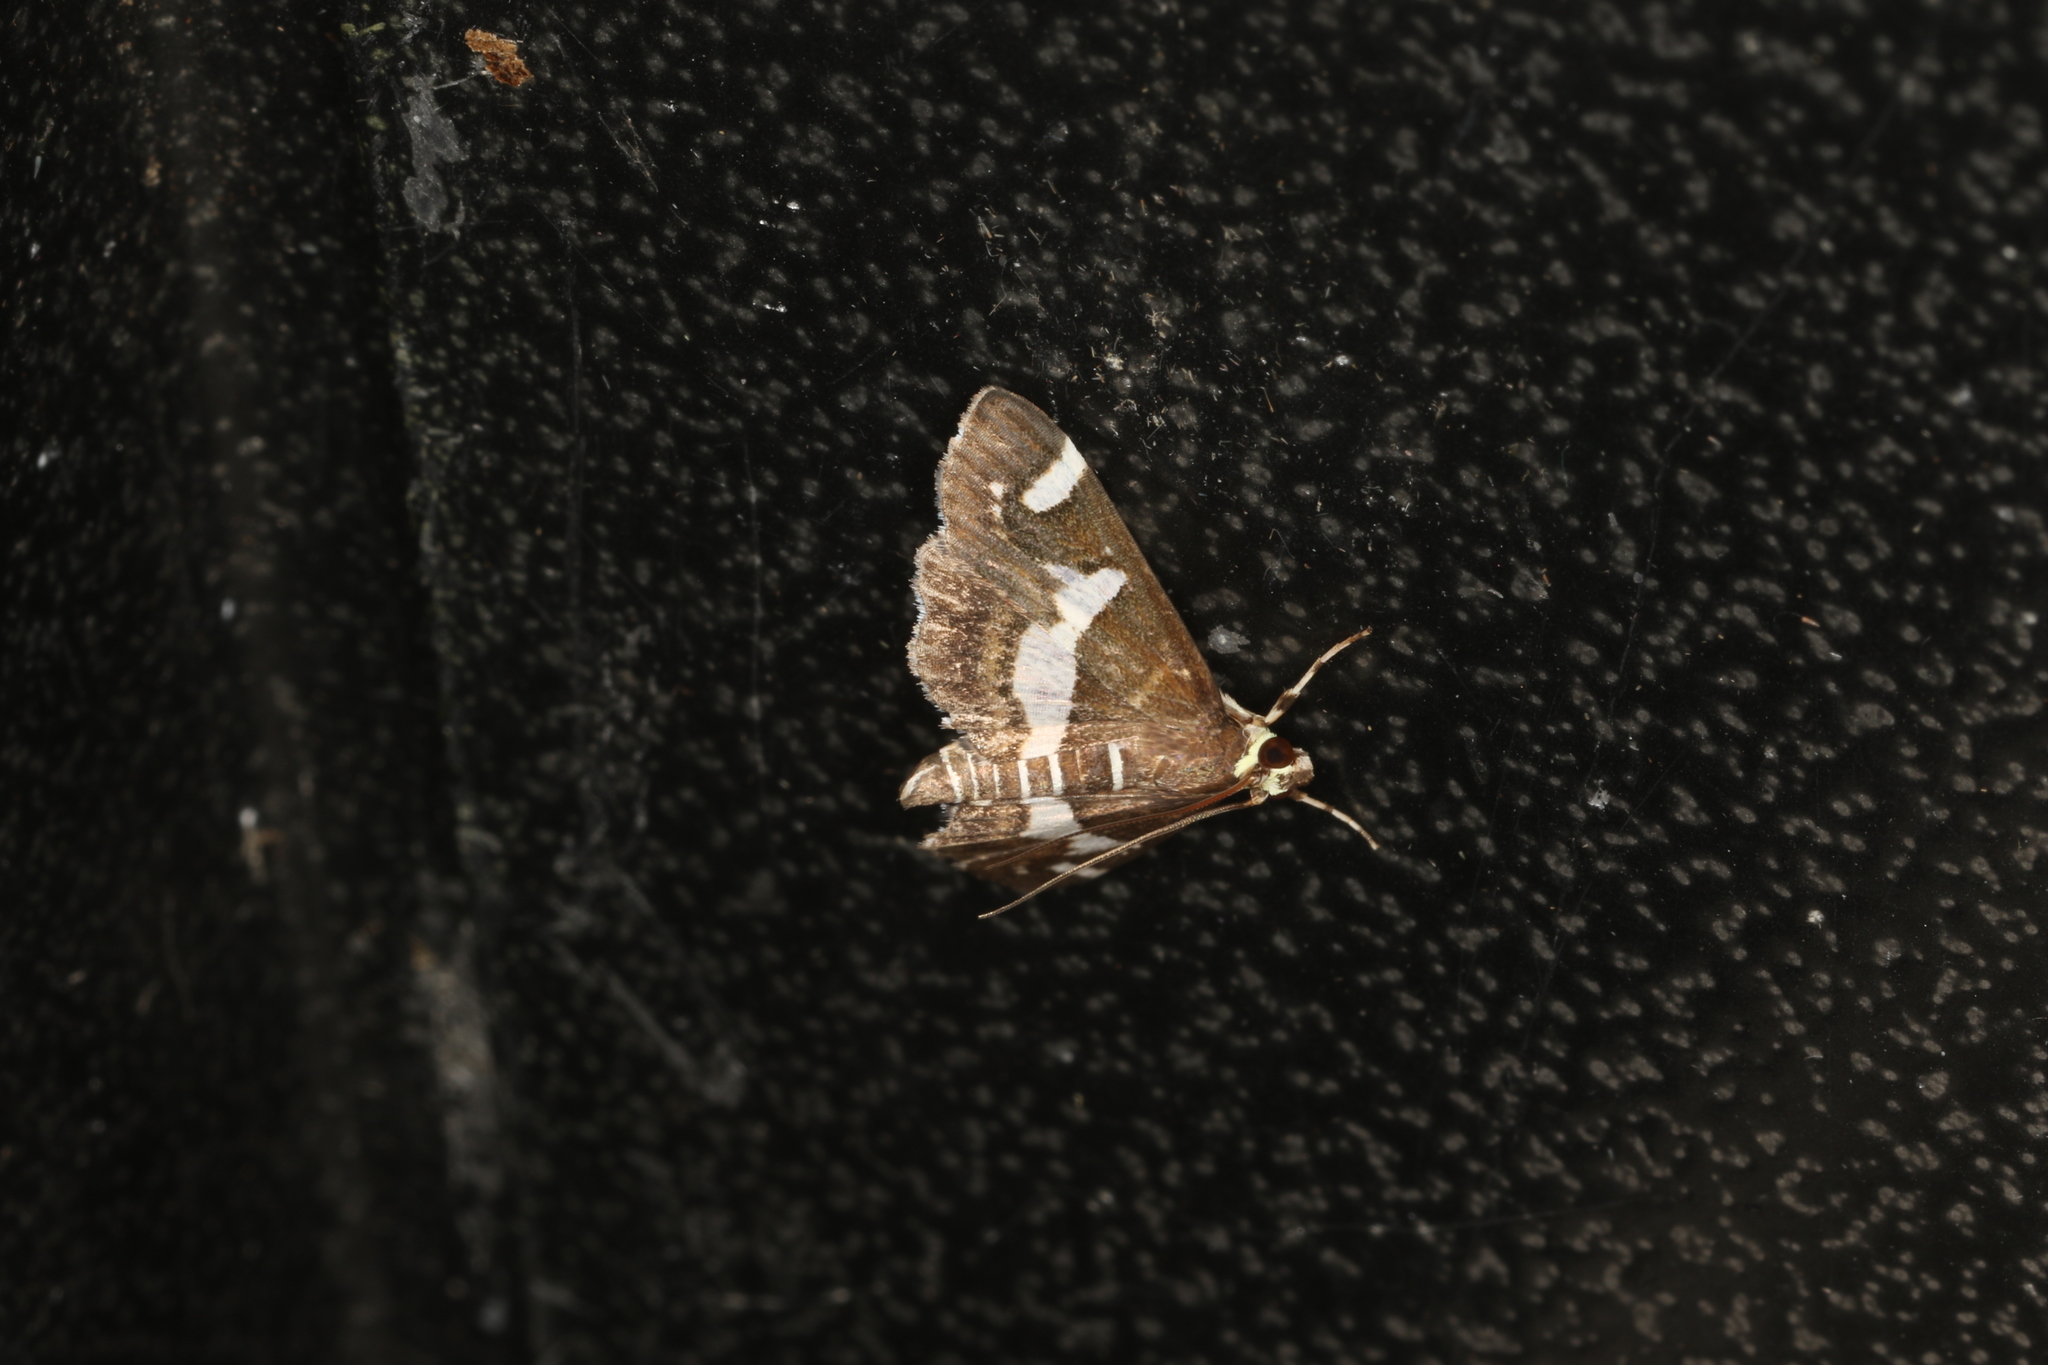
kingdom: Animalia
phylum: Arthropoda
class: Insecta
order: Lepidoptera
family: Crambidae
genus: Spoladea
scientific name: Spoladea recurvalis
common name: Beet webworm moth
